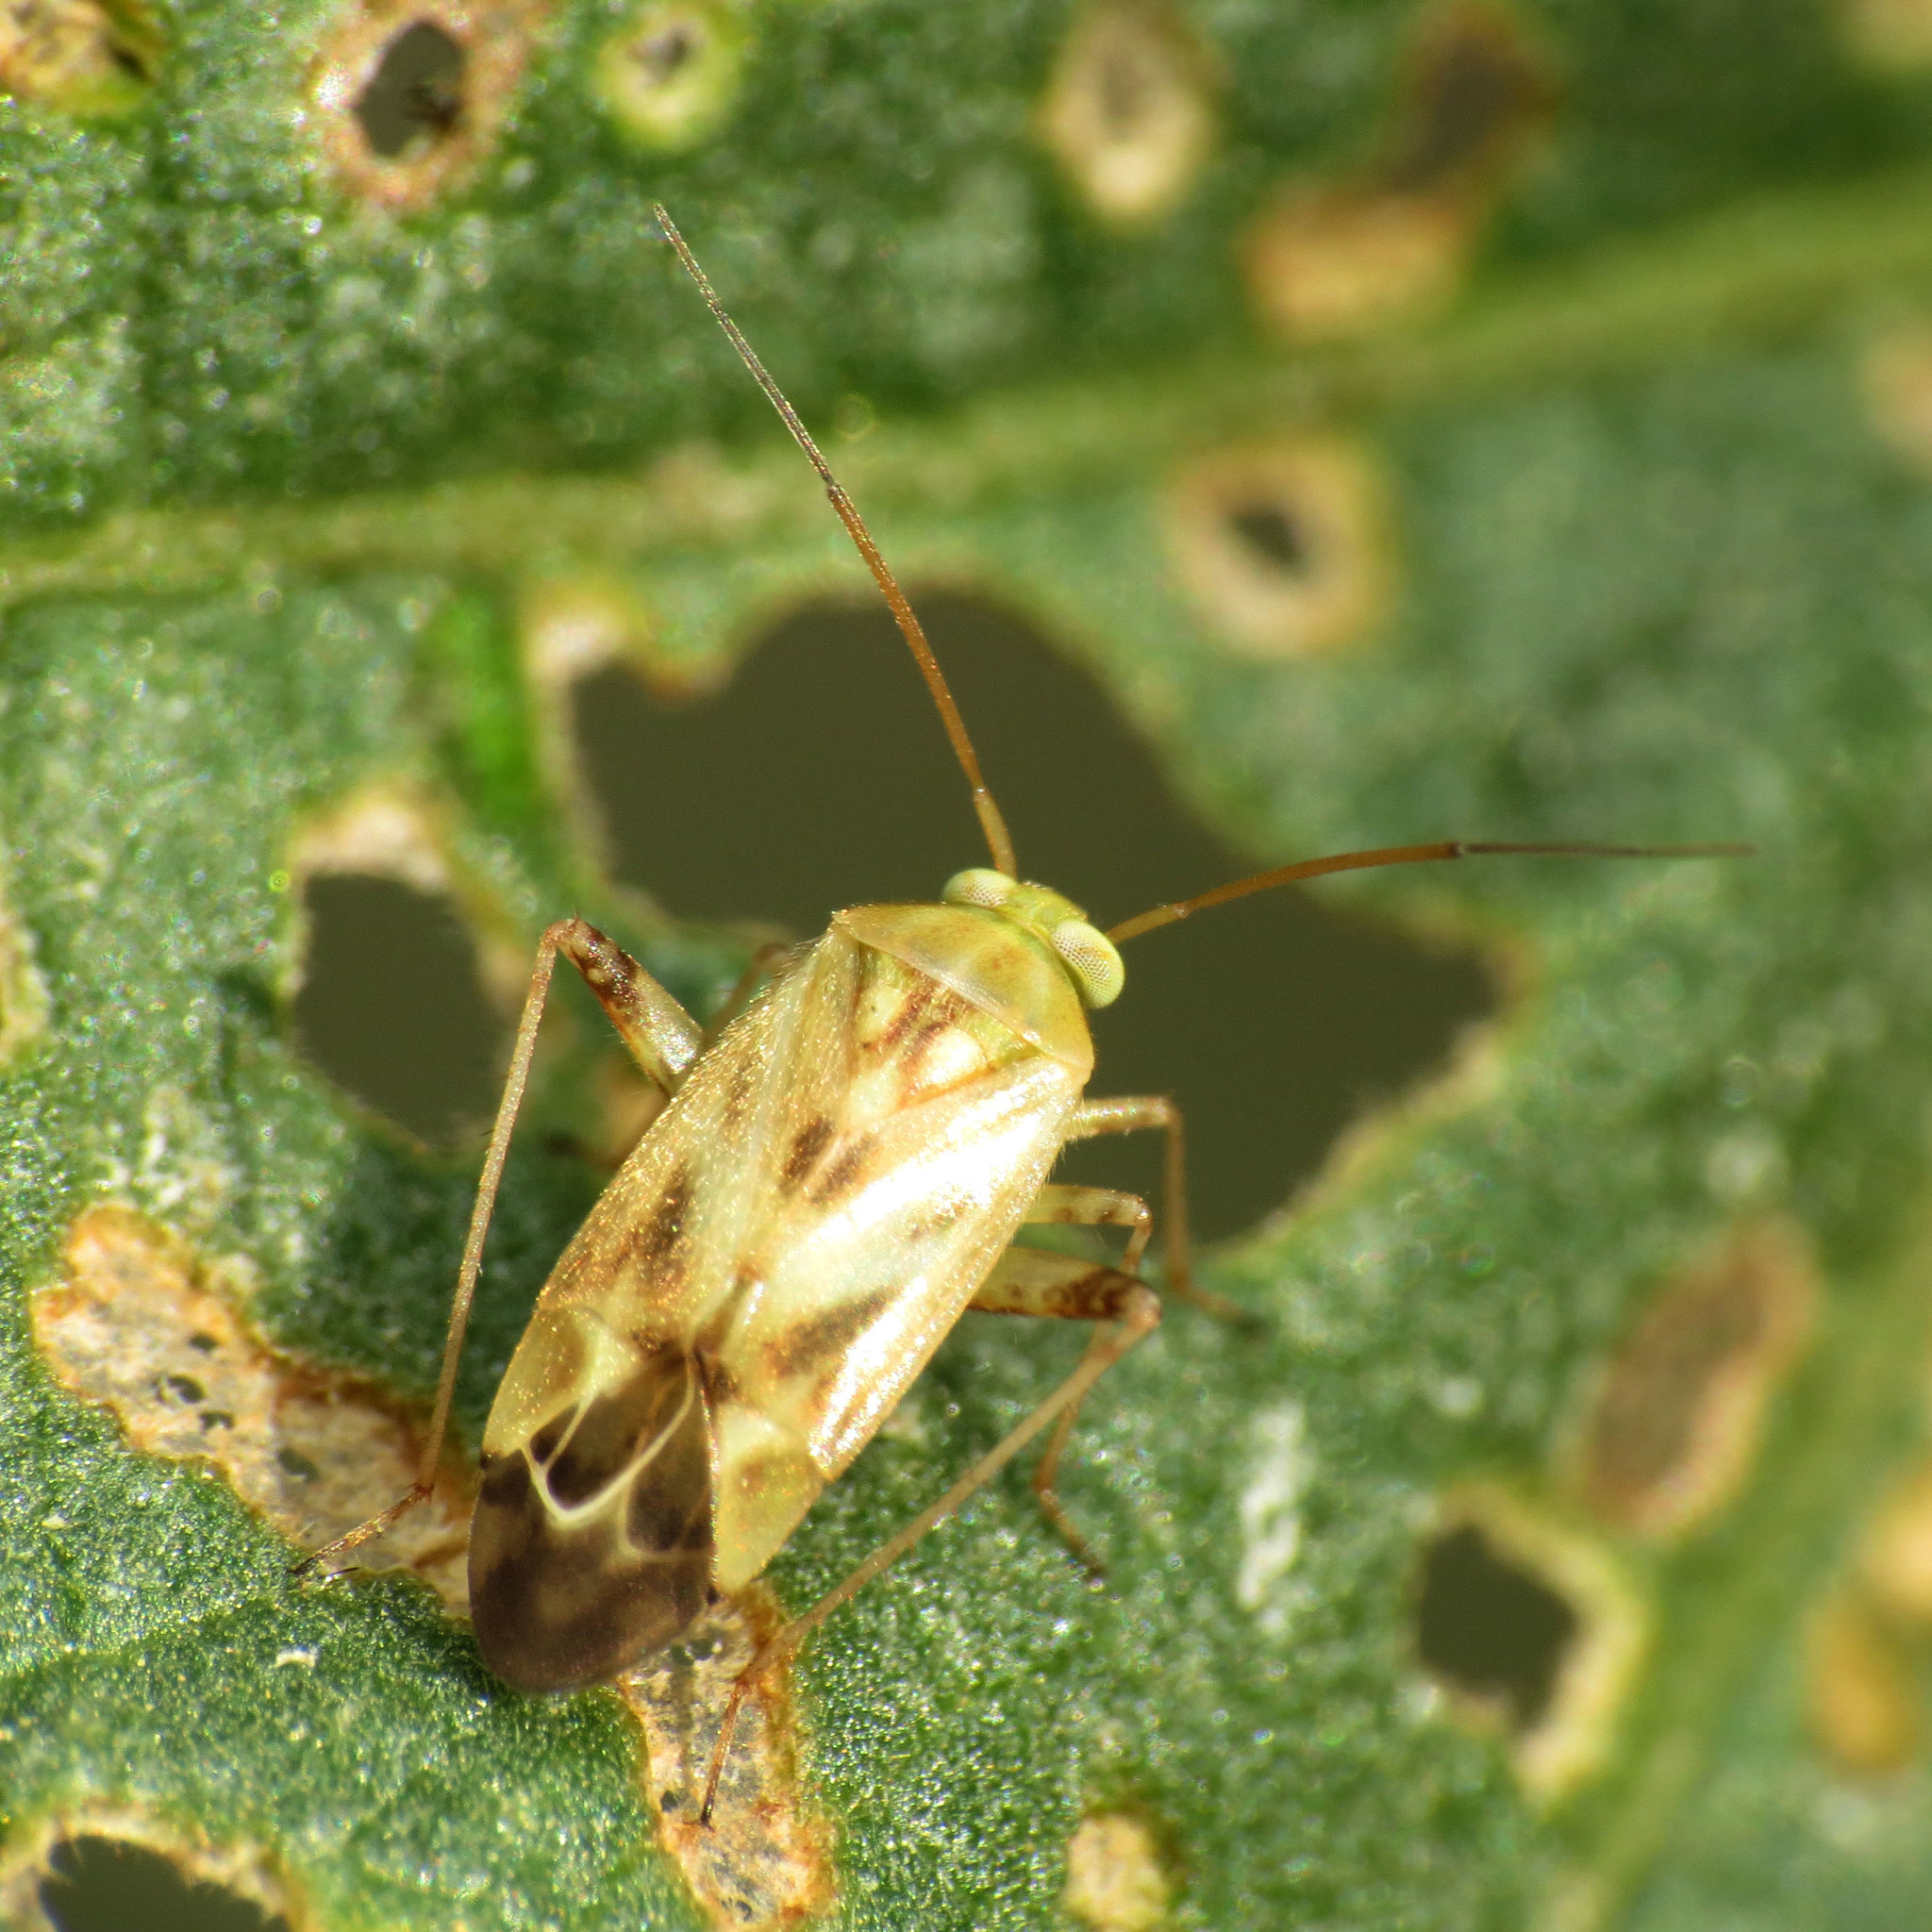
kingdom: Animalia
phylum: Arthropoda
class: Insecta
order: Hemiptera
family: Miridae
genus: Taylorilygus
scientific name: Taylorilygus apicalis
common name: Plant bug
